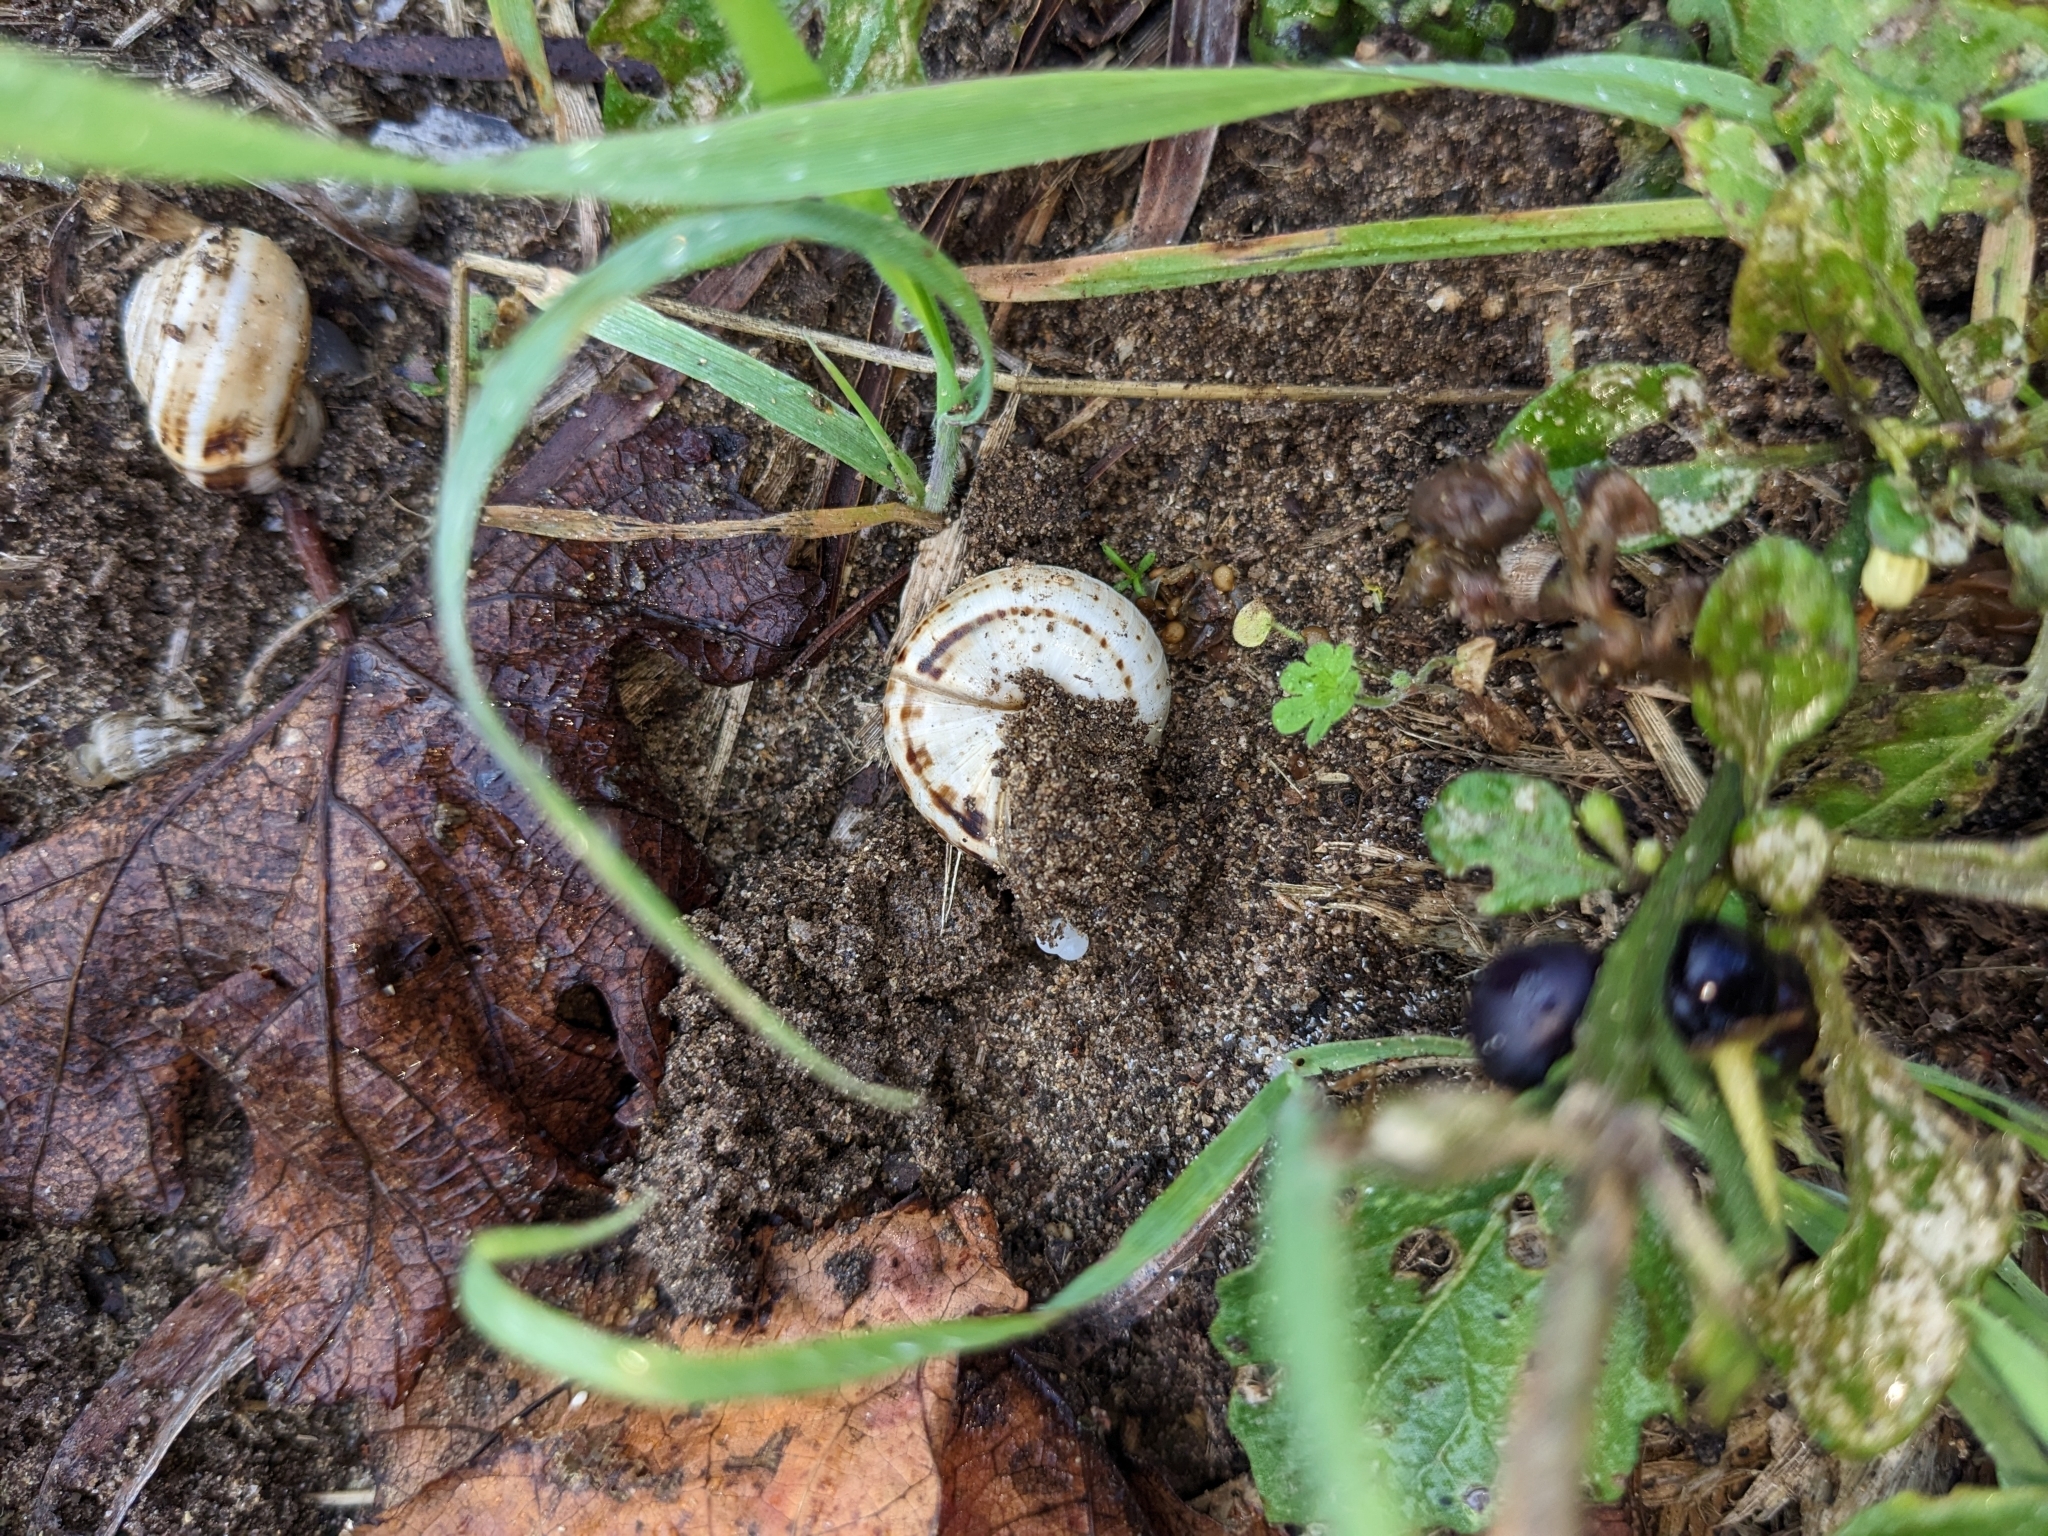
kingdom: Animalia
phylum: Mollusca
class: Gastropoda
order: Stylommatophora
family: Helicidae
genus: Theba
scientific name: Theba pisana
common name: White snail
